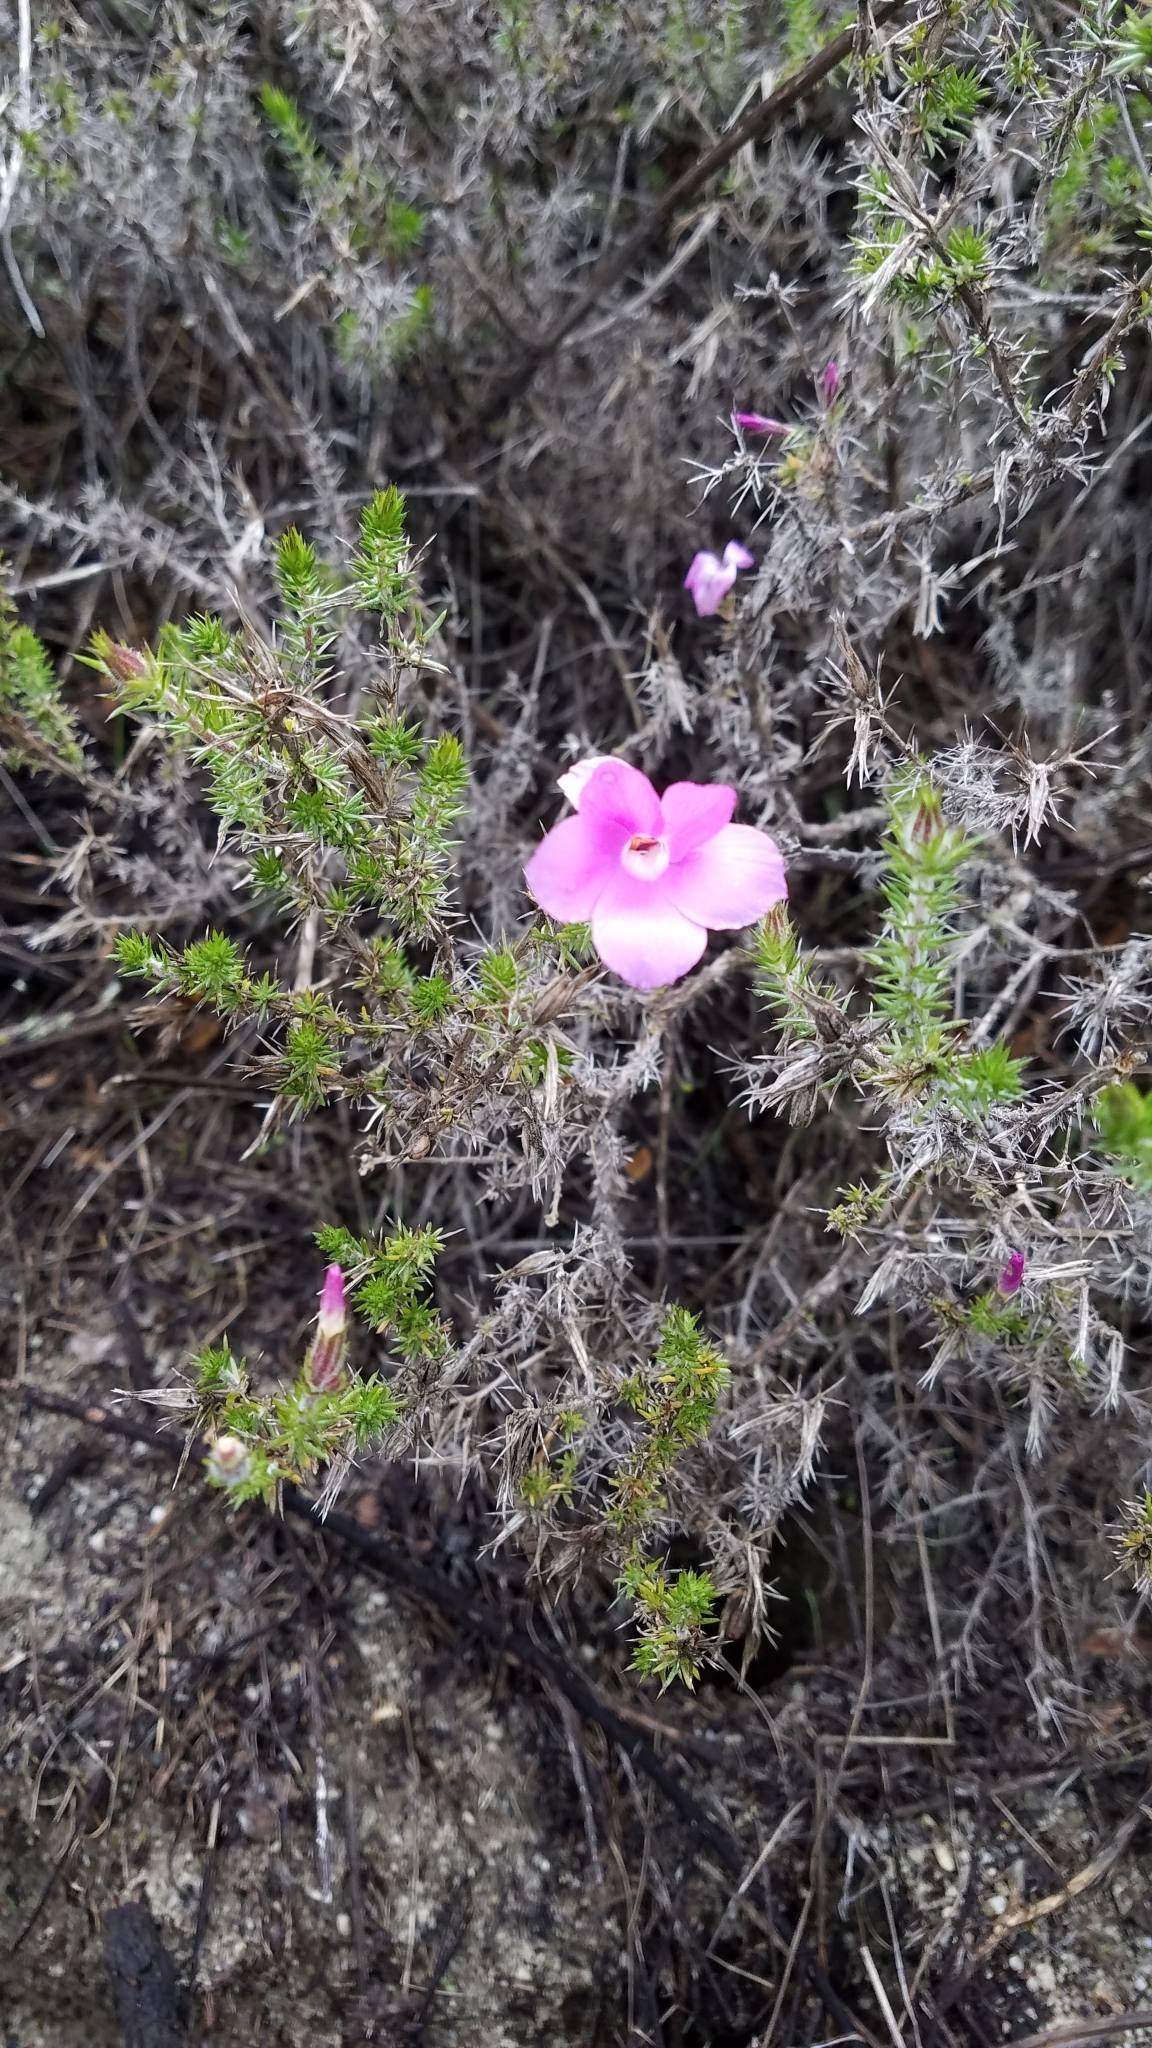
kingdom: Plantae
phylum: Tracheophyta
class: Magnoliopsida
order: Ericales
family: Polemoniaceae
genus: Linanthus
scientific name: Linanthus californicus
